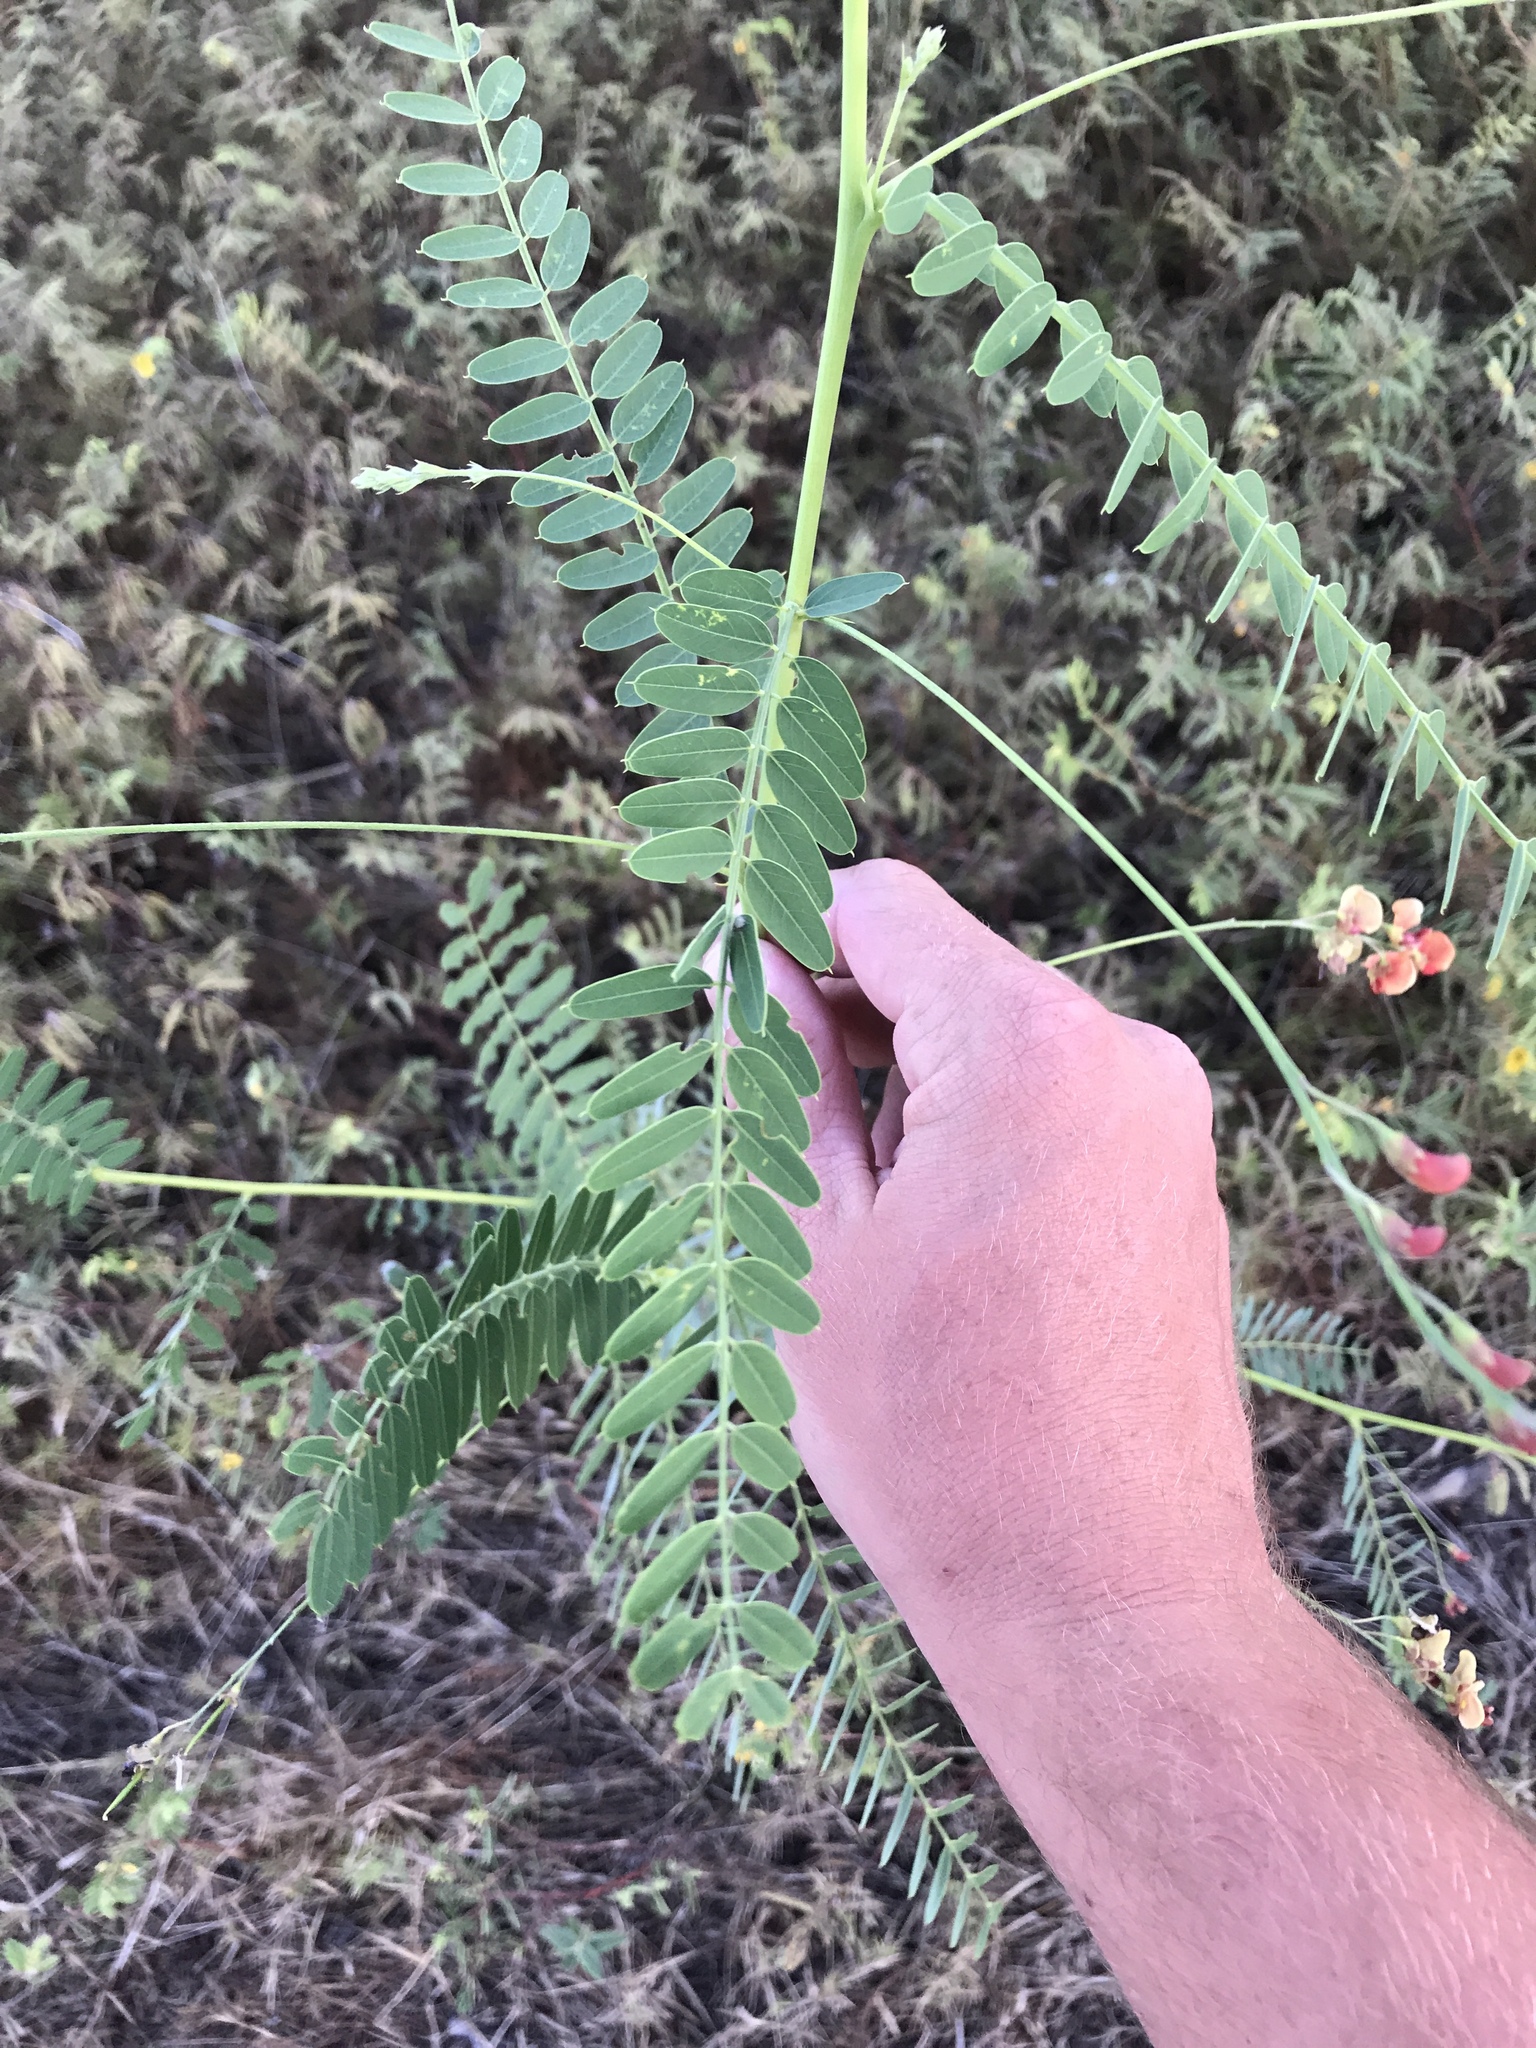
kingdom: Plantae
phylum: Tracheophyta
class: Magnoliopsida
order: Fabales
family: Fabaceae
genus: Sesbania
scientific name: Sesbania vesicaria
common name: Bagpod
